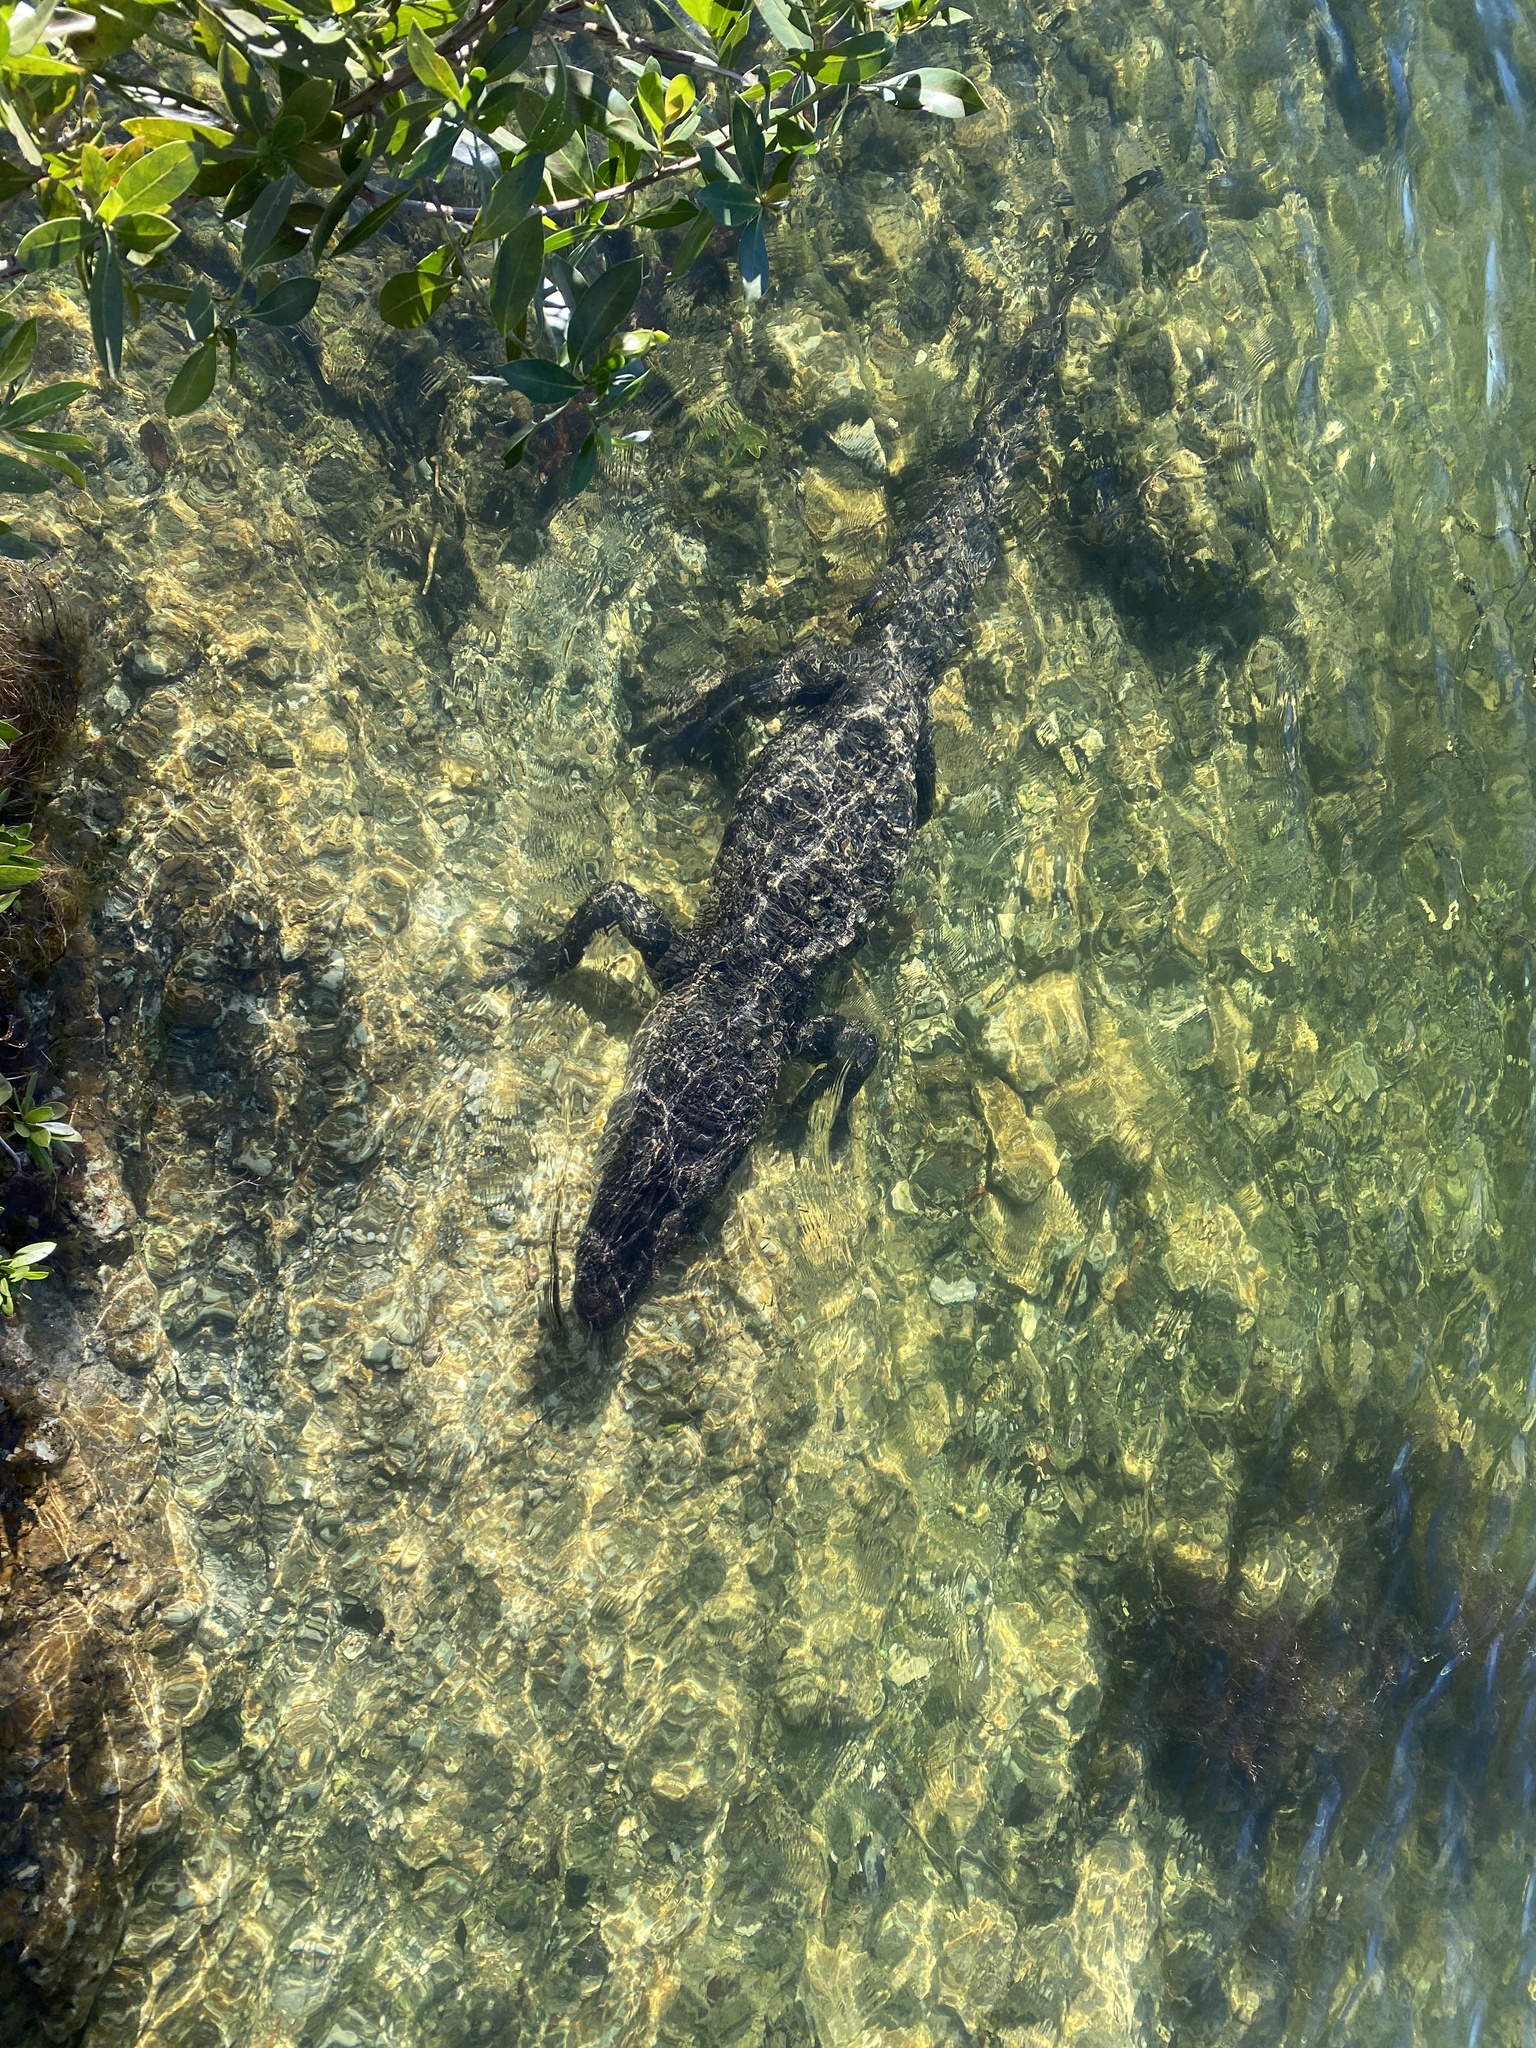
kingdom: Animalia
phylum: Chordata
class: Crocodylia
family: Alligatoridae
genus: Alligator
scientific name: Alligator mississippiensis
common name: American alligator
